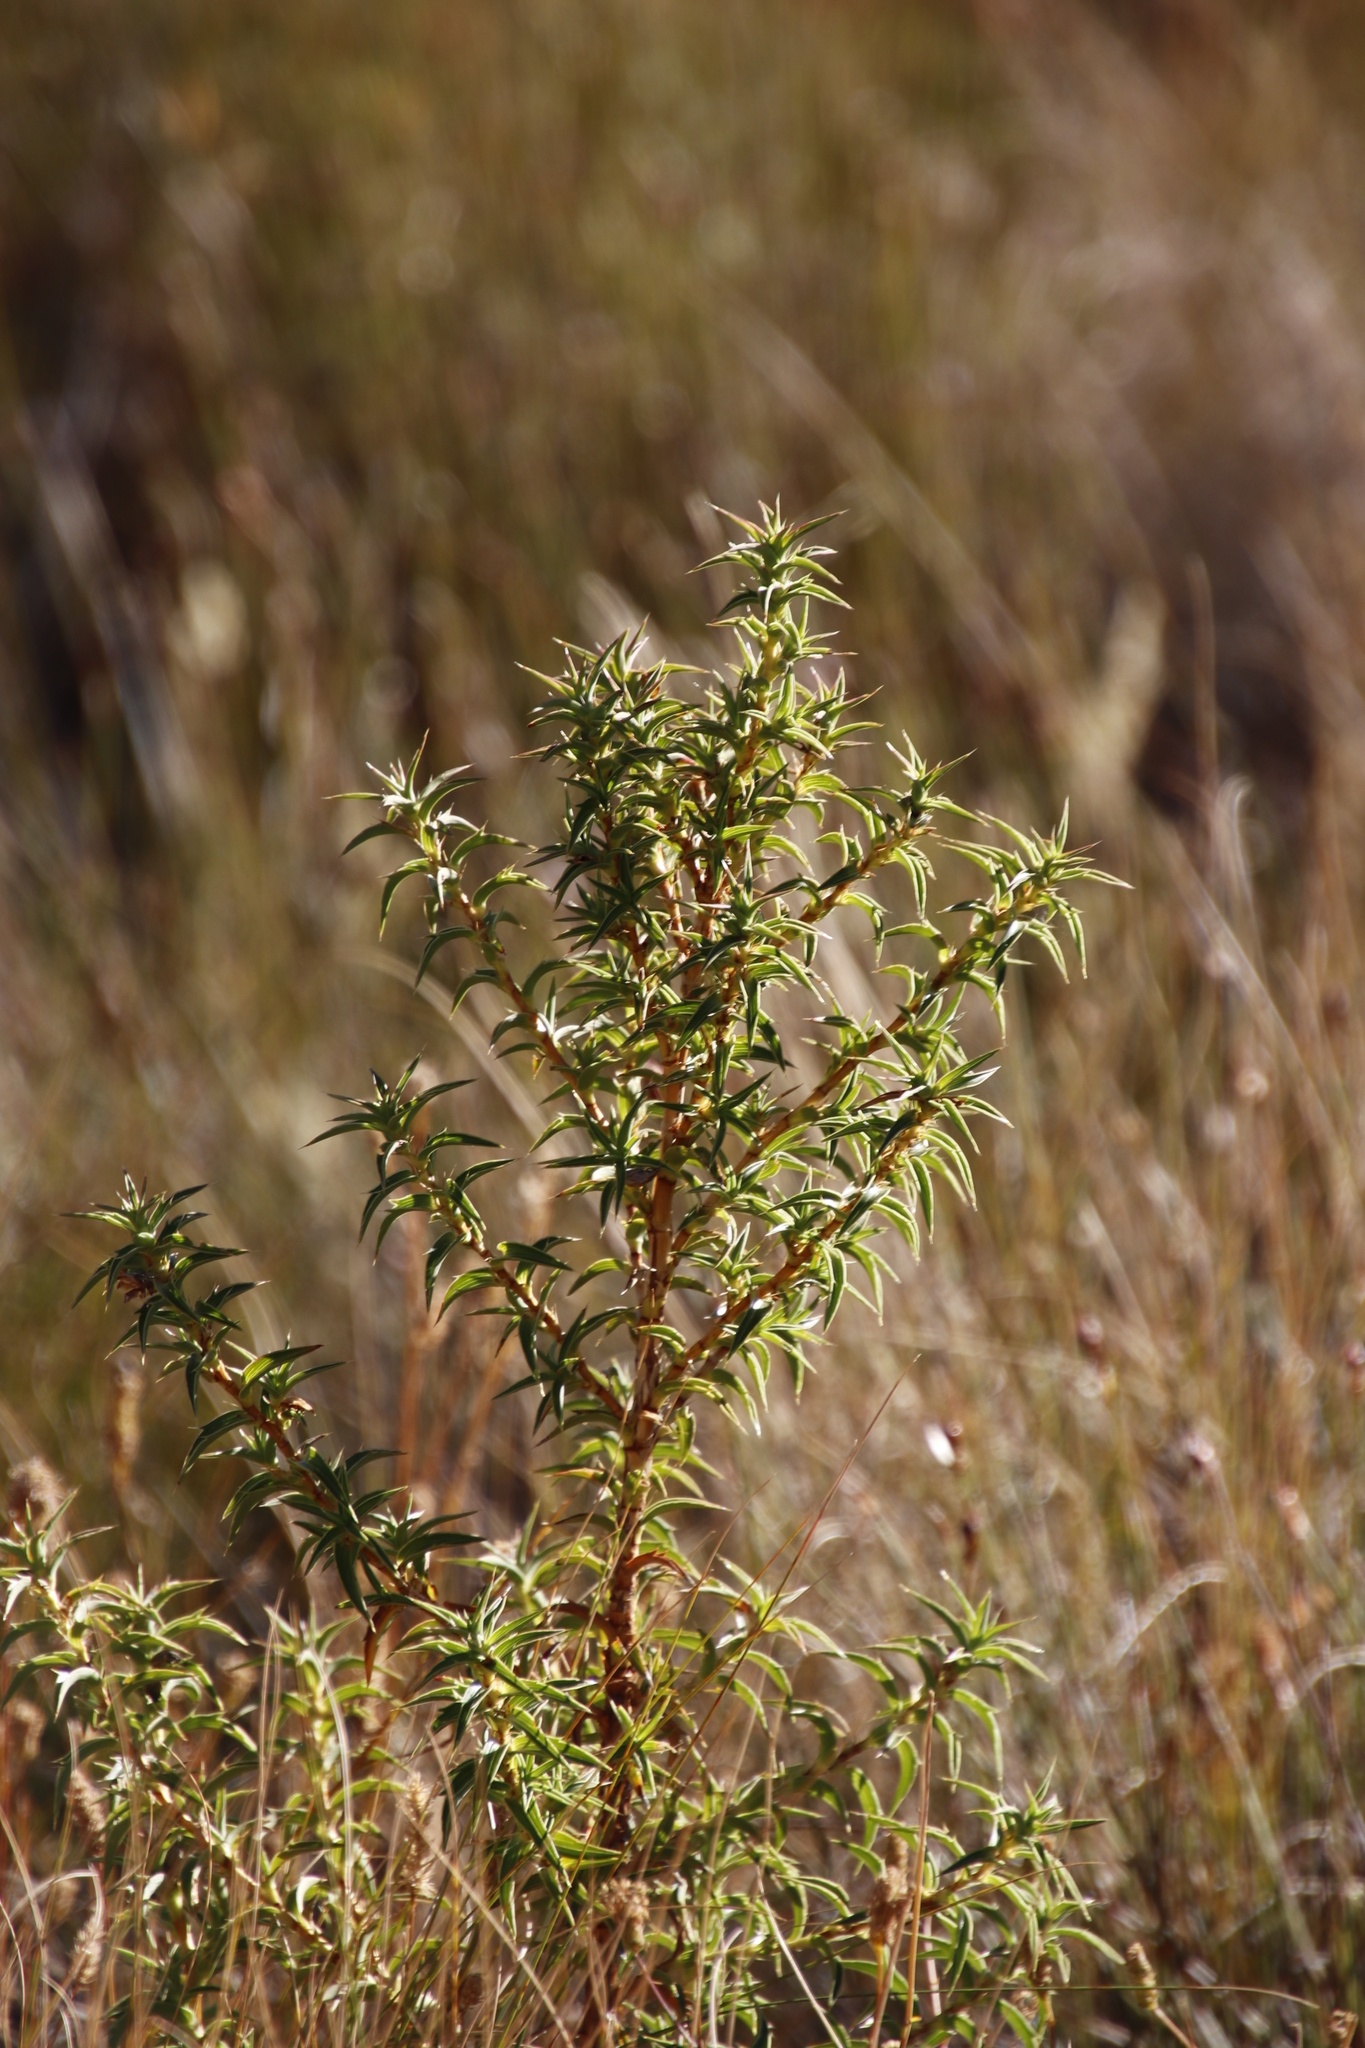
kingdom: Plantae
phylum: Tracheophyta
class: Magnoliopsida
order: Rosales
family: Rosaceae
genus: Cliffortia
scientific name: Cliffortia acanthophylla
